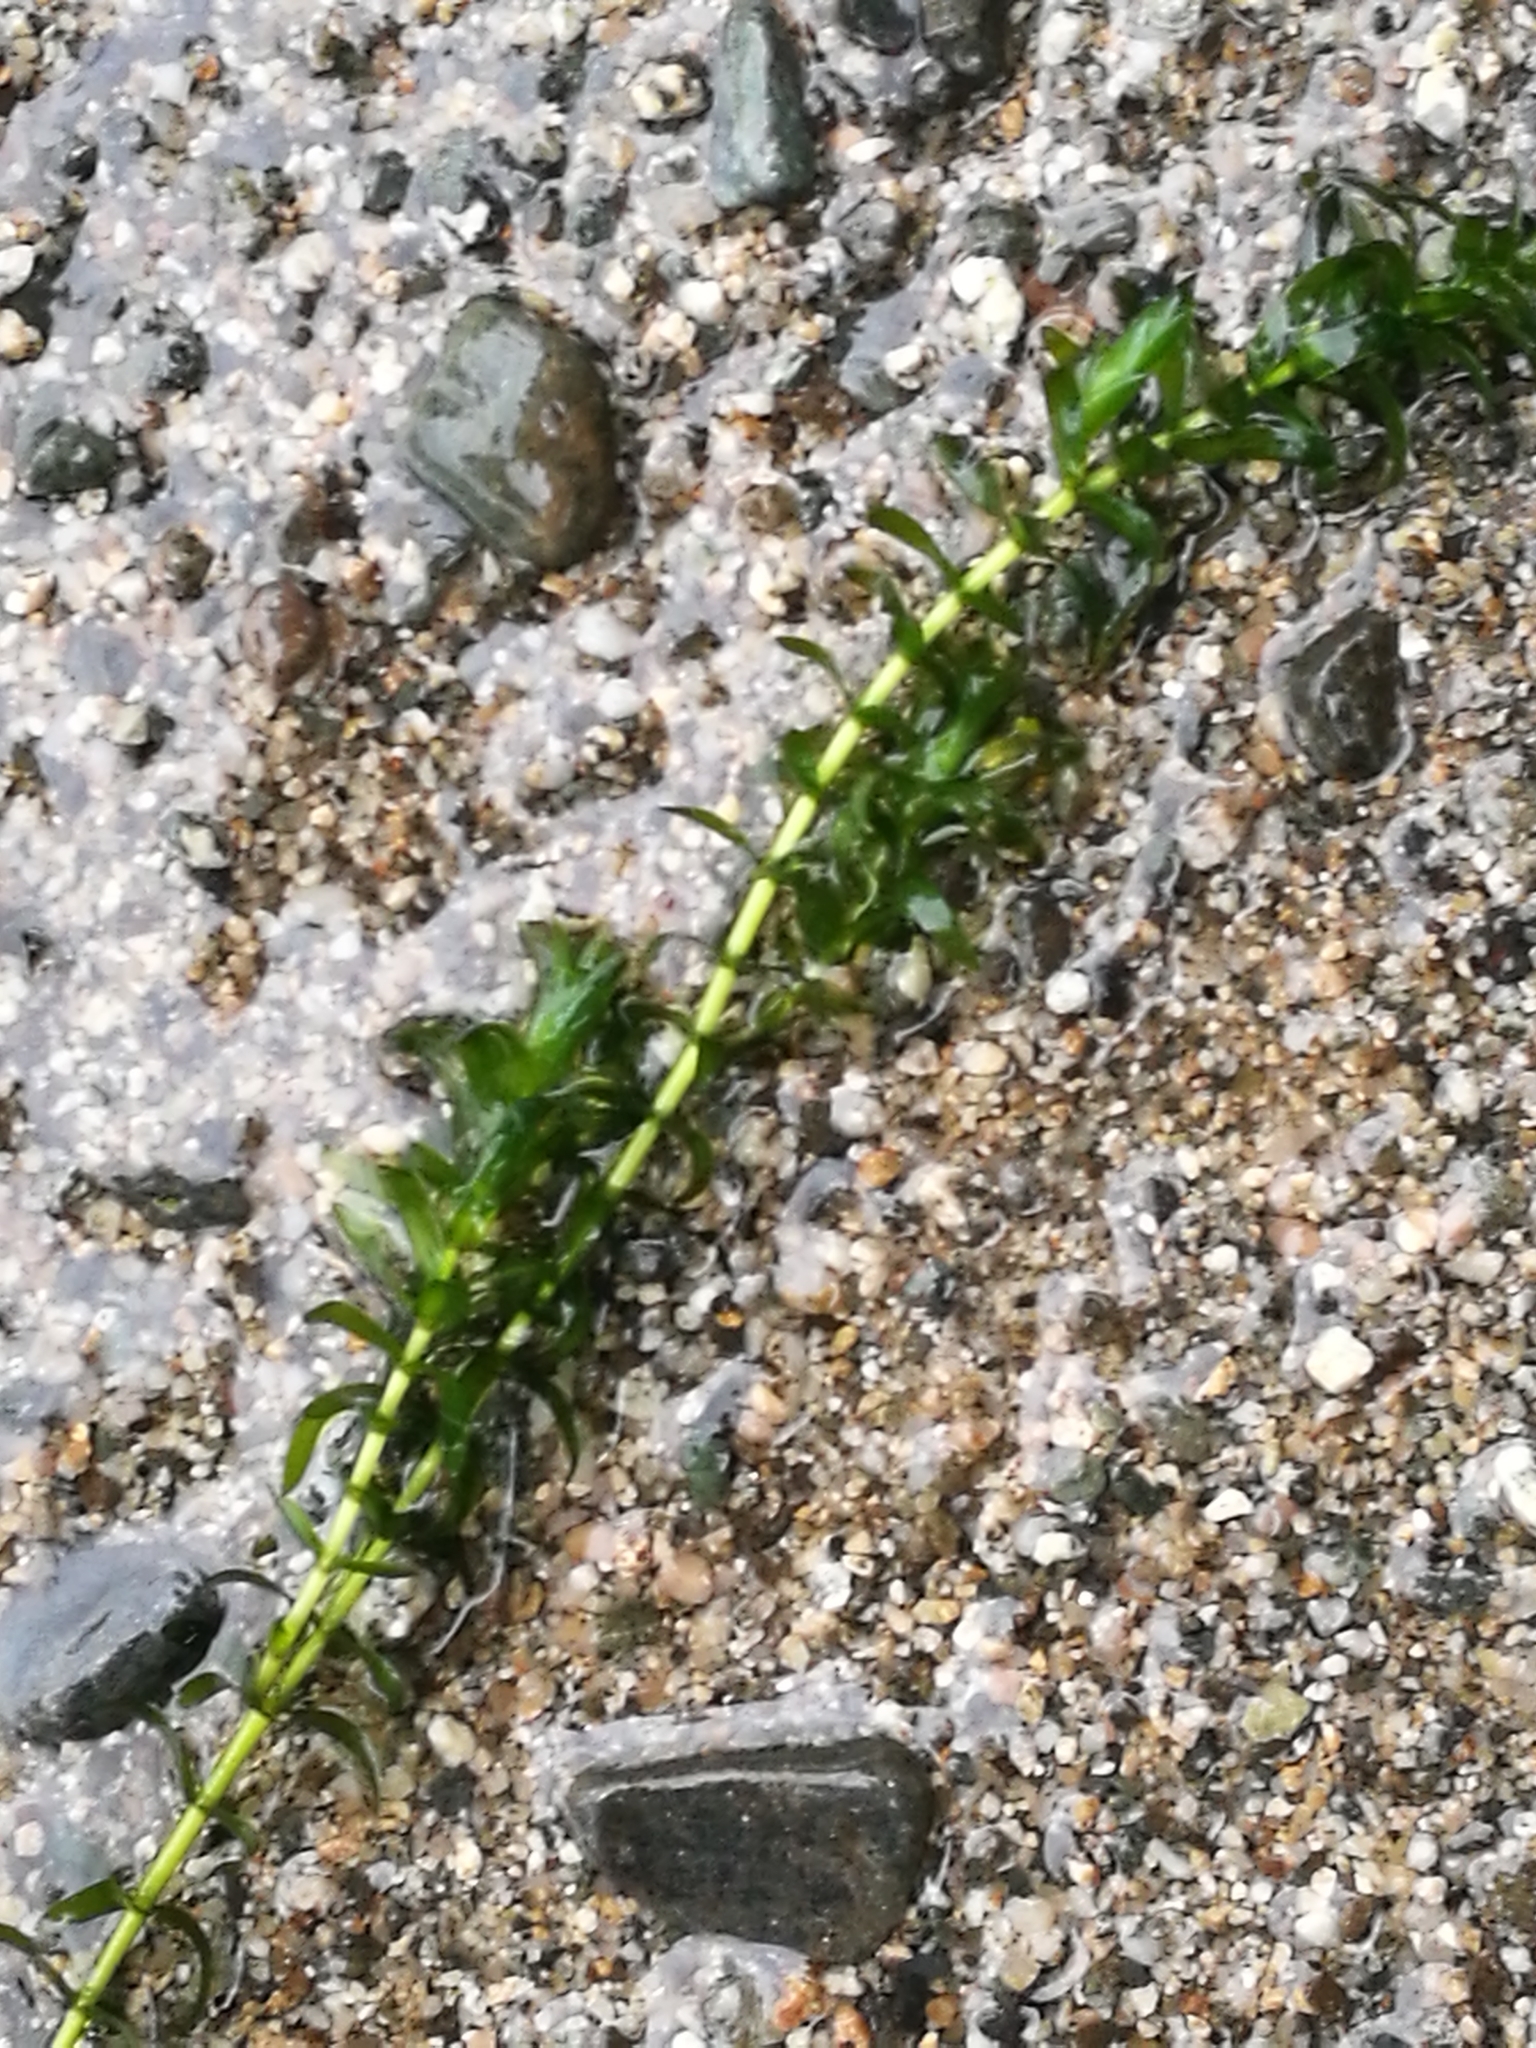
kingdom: Plantae
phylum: Tracheophyta
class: Liliopsida
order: Alismatales
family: Hydrocharitaceae
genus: Elodea
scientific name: Elodea canadensis
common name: Canadian waterweed
